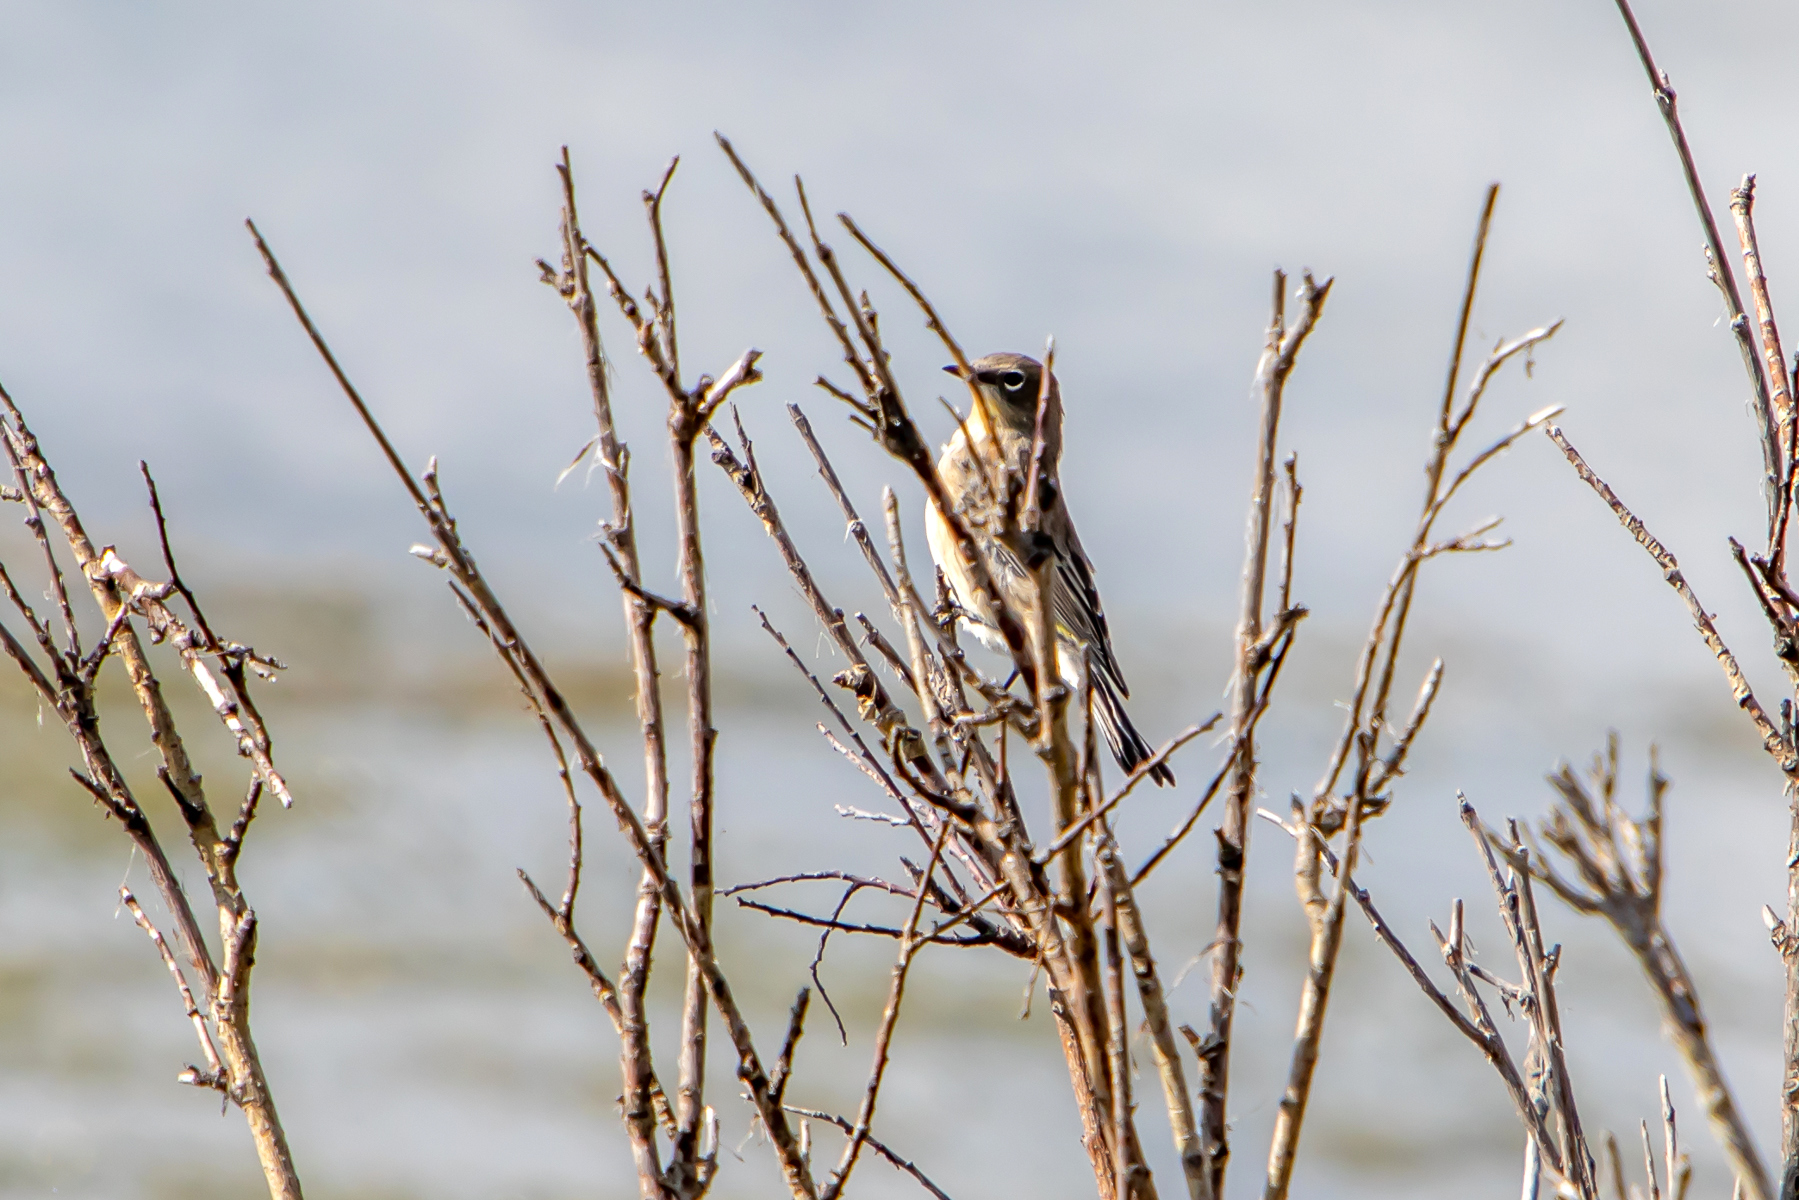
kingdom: Animalia
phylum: Chordata
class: Aves
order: Passeriformes
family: Parulidae
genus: Setophaga
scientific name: Setophaga auduboni
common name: Audubon's warbler
